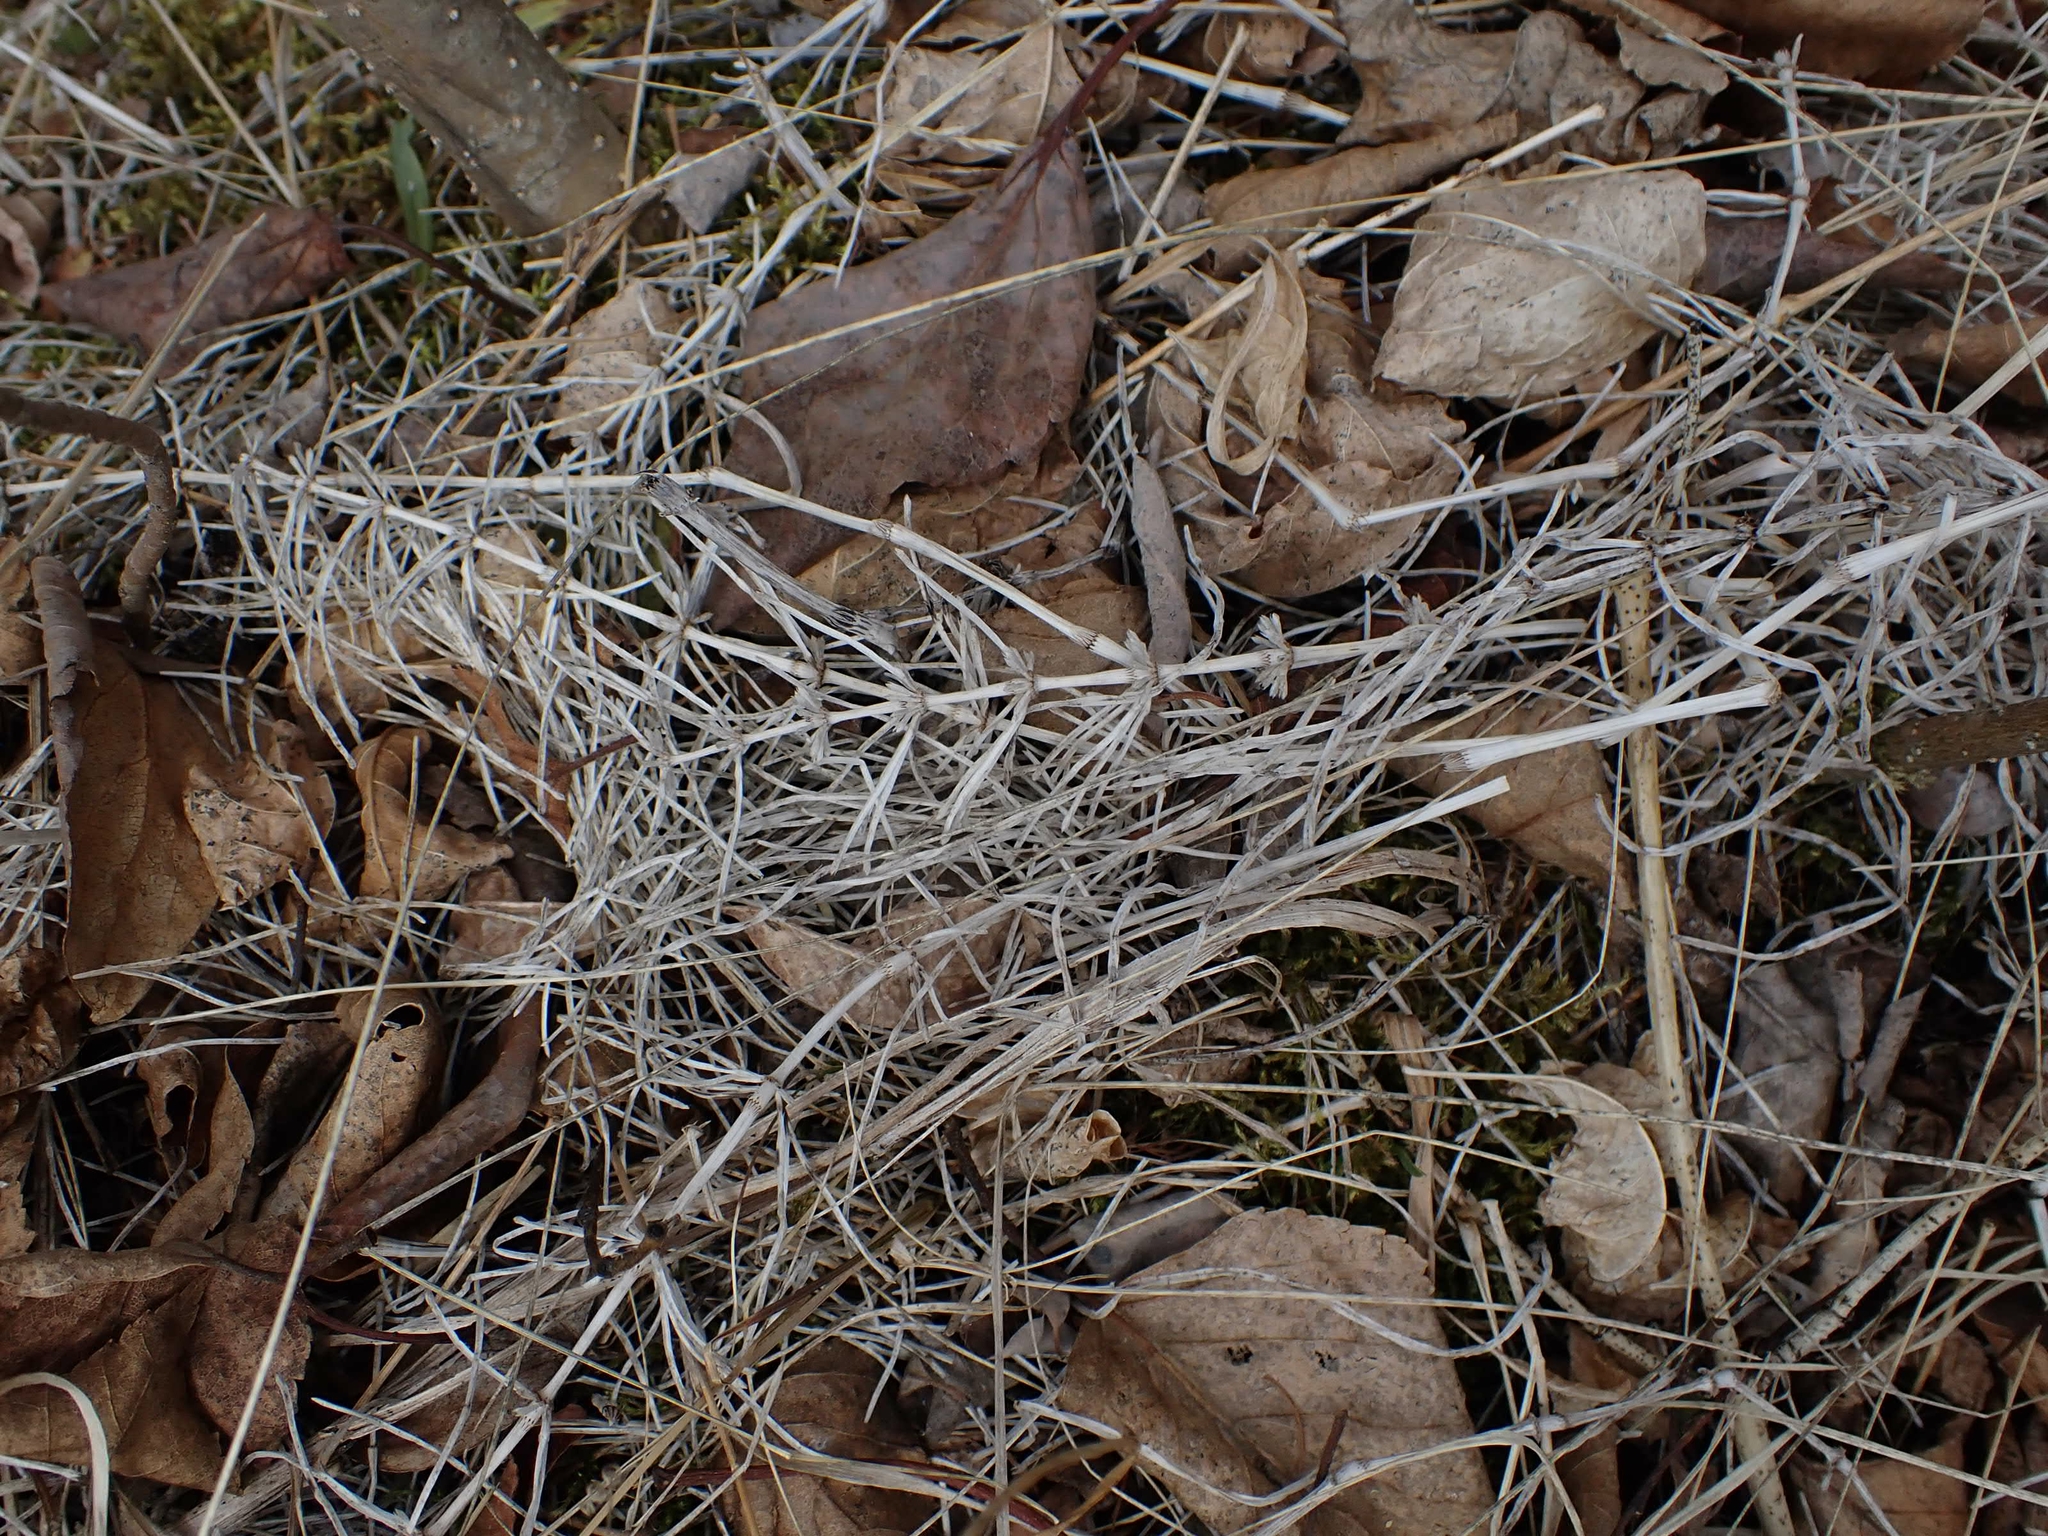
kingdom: Plantae
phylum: Tracheophyta
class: Polypodiopsida
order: Equisetales
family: Equisetaceae
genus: Equisetum
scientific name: Equisetum arvense
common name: Field horsetail
